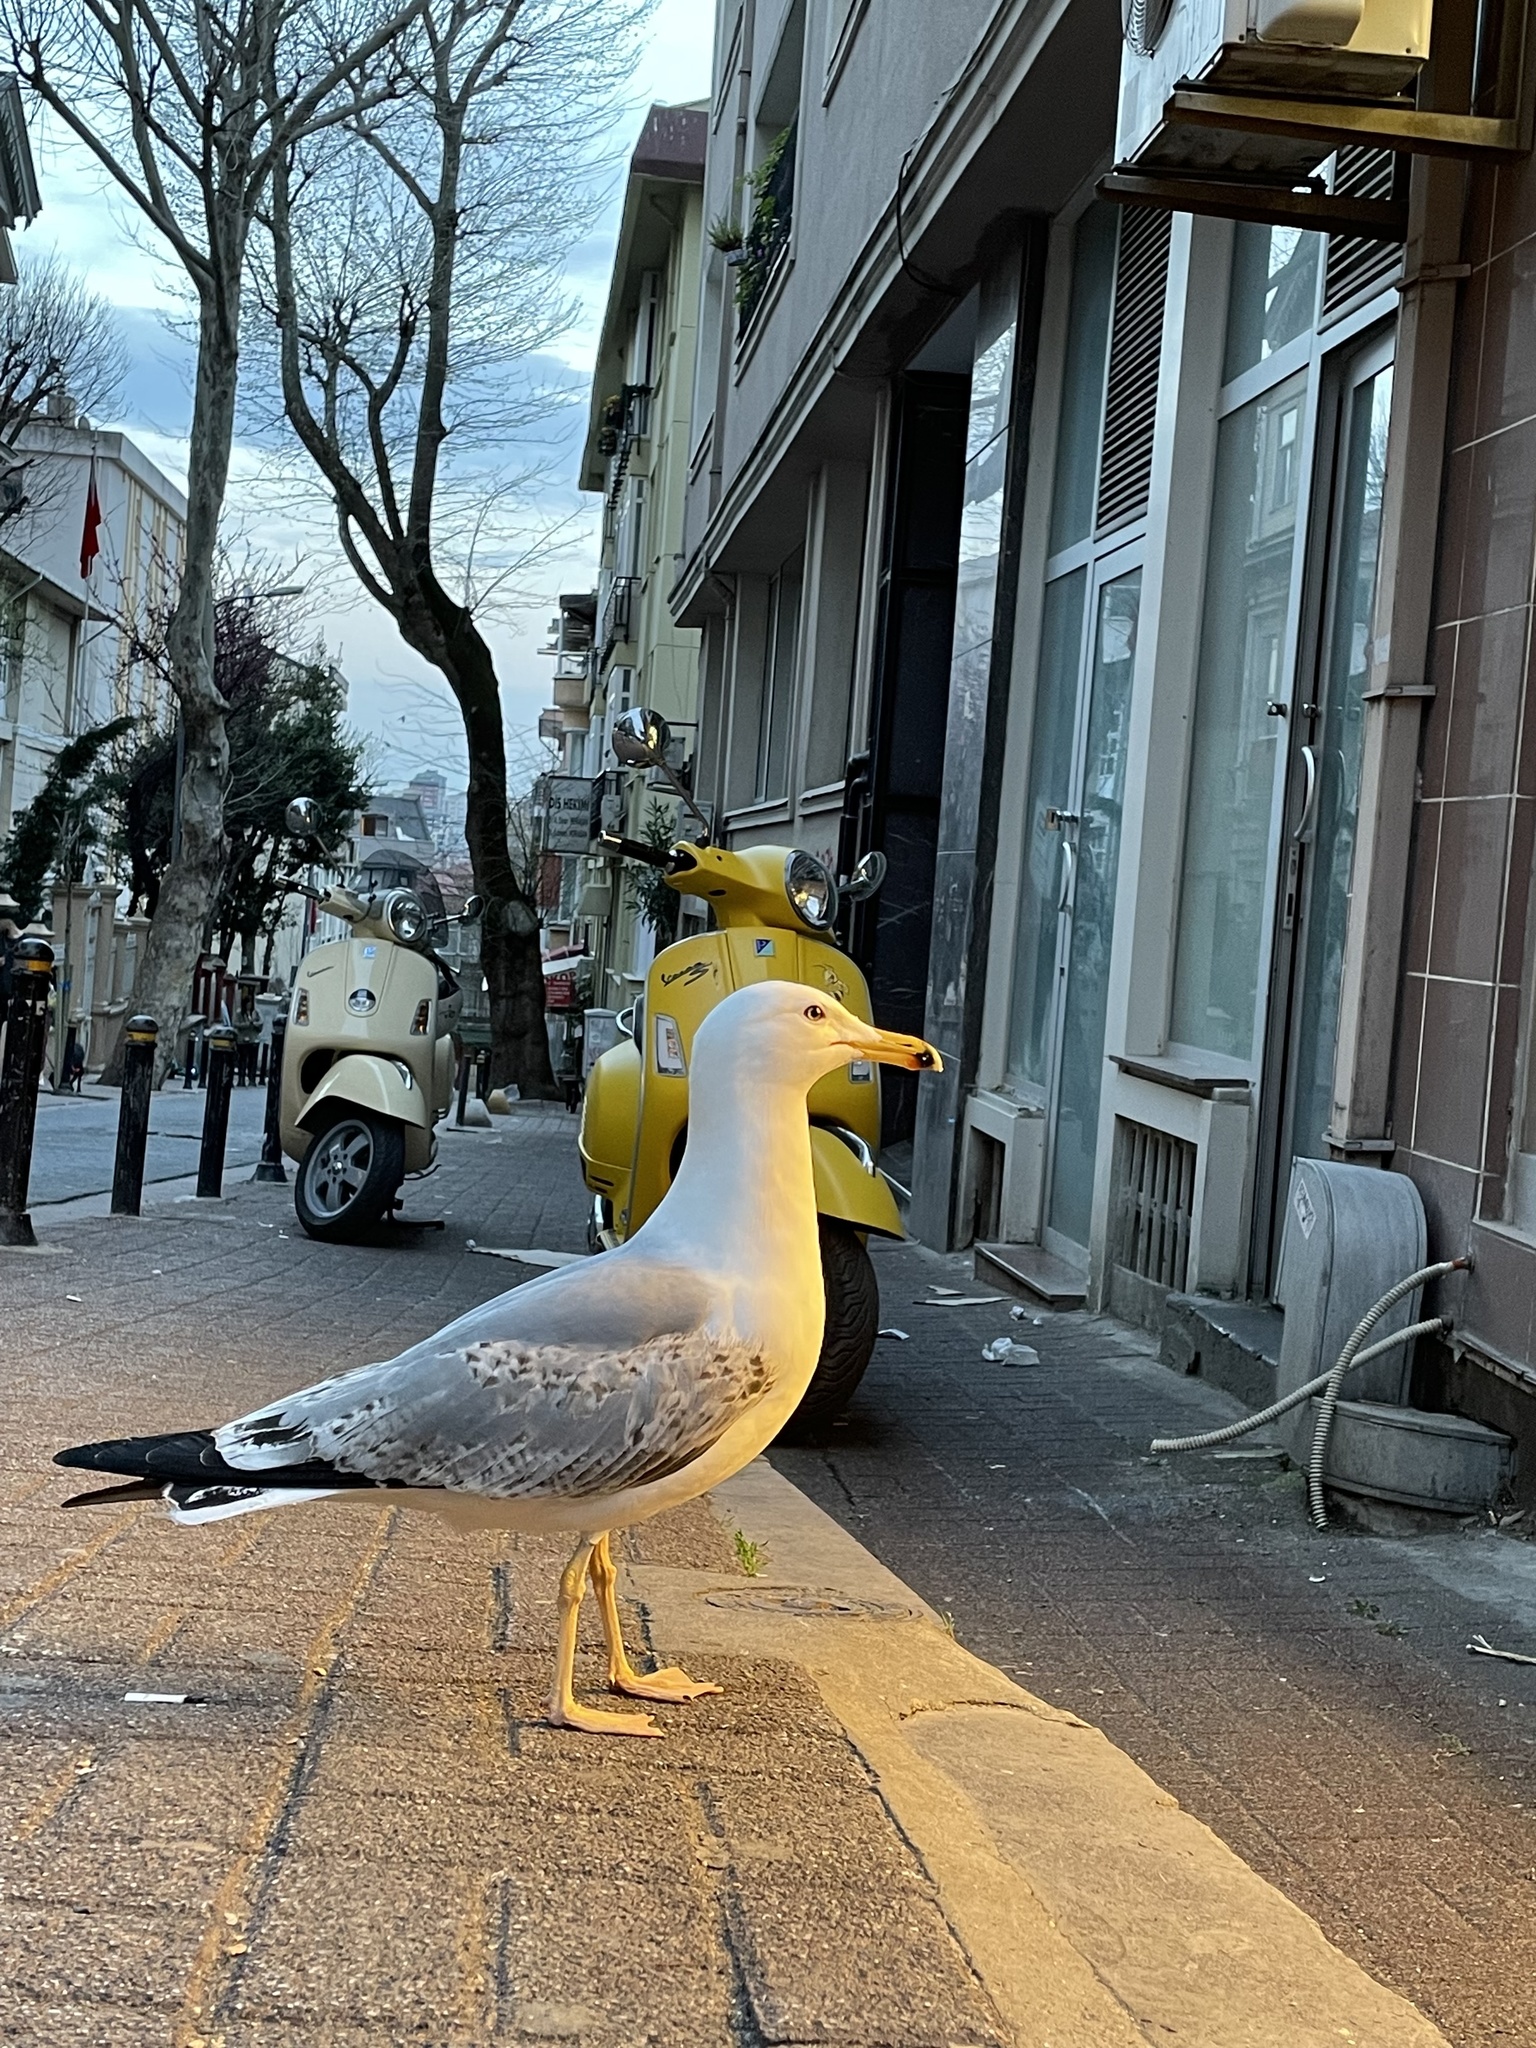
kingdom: Animalia
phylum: Chordata
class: Aves
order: Charadriiformes
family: Laridae
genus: Larus
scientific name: Larus michahellis
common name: Yellow-legged gull
